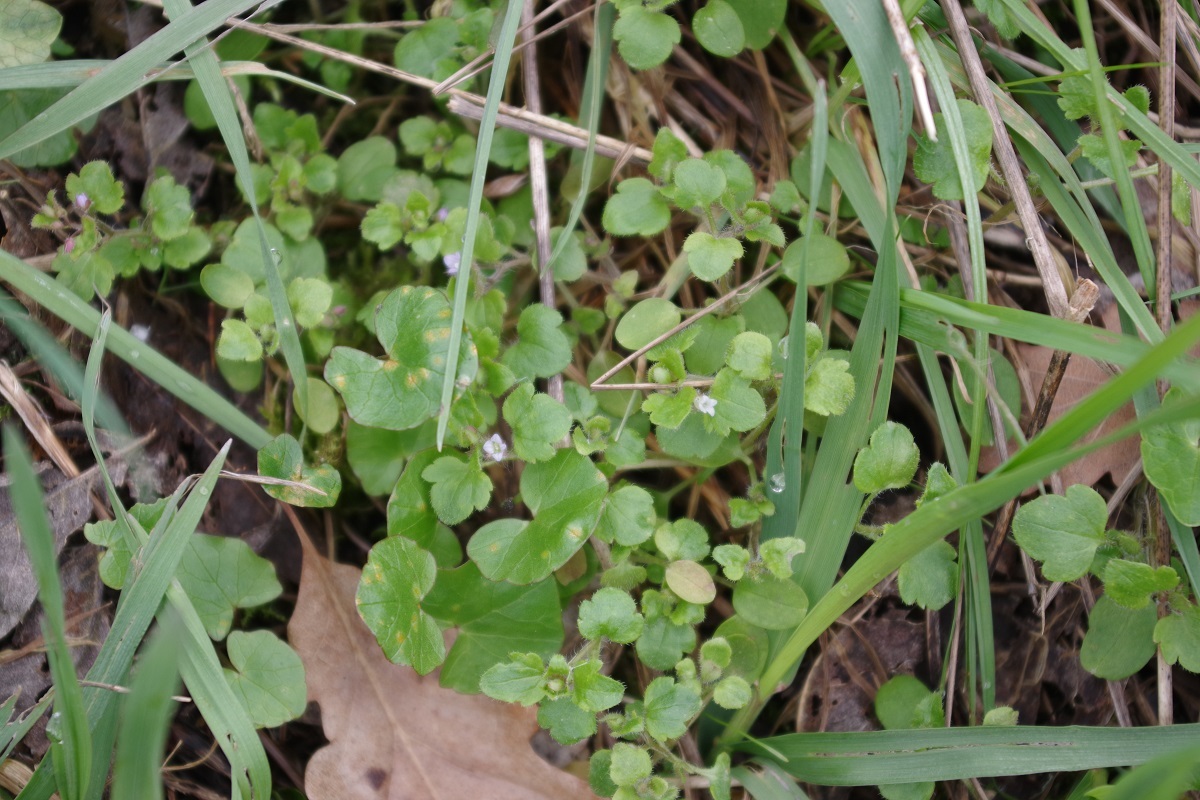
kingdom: Plantae
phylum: Tracheophyta
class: Magnoliopsida
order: Lamiales
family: Plantaginaceae
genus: Veronica
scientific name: Veronica sublobata
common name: False ivy-leaved speedwell
